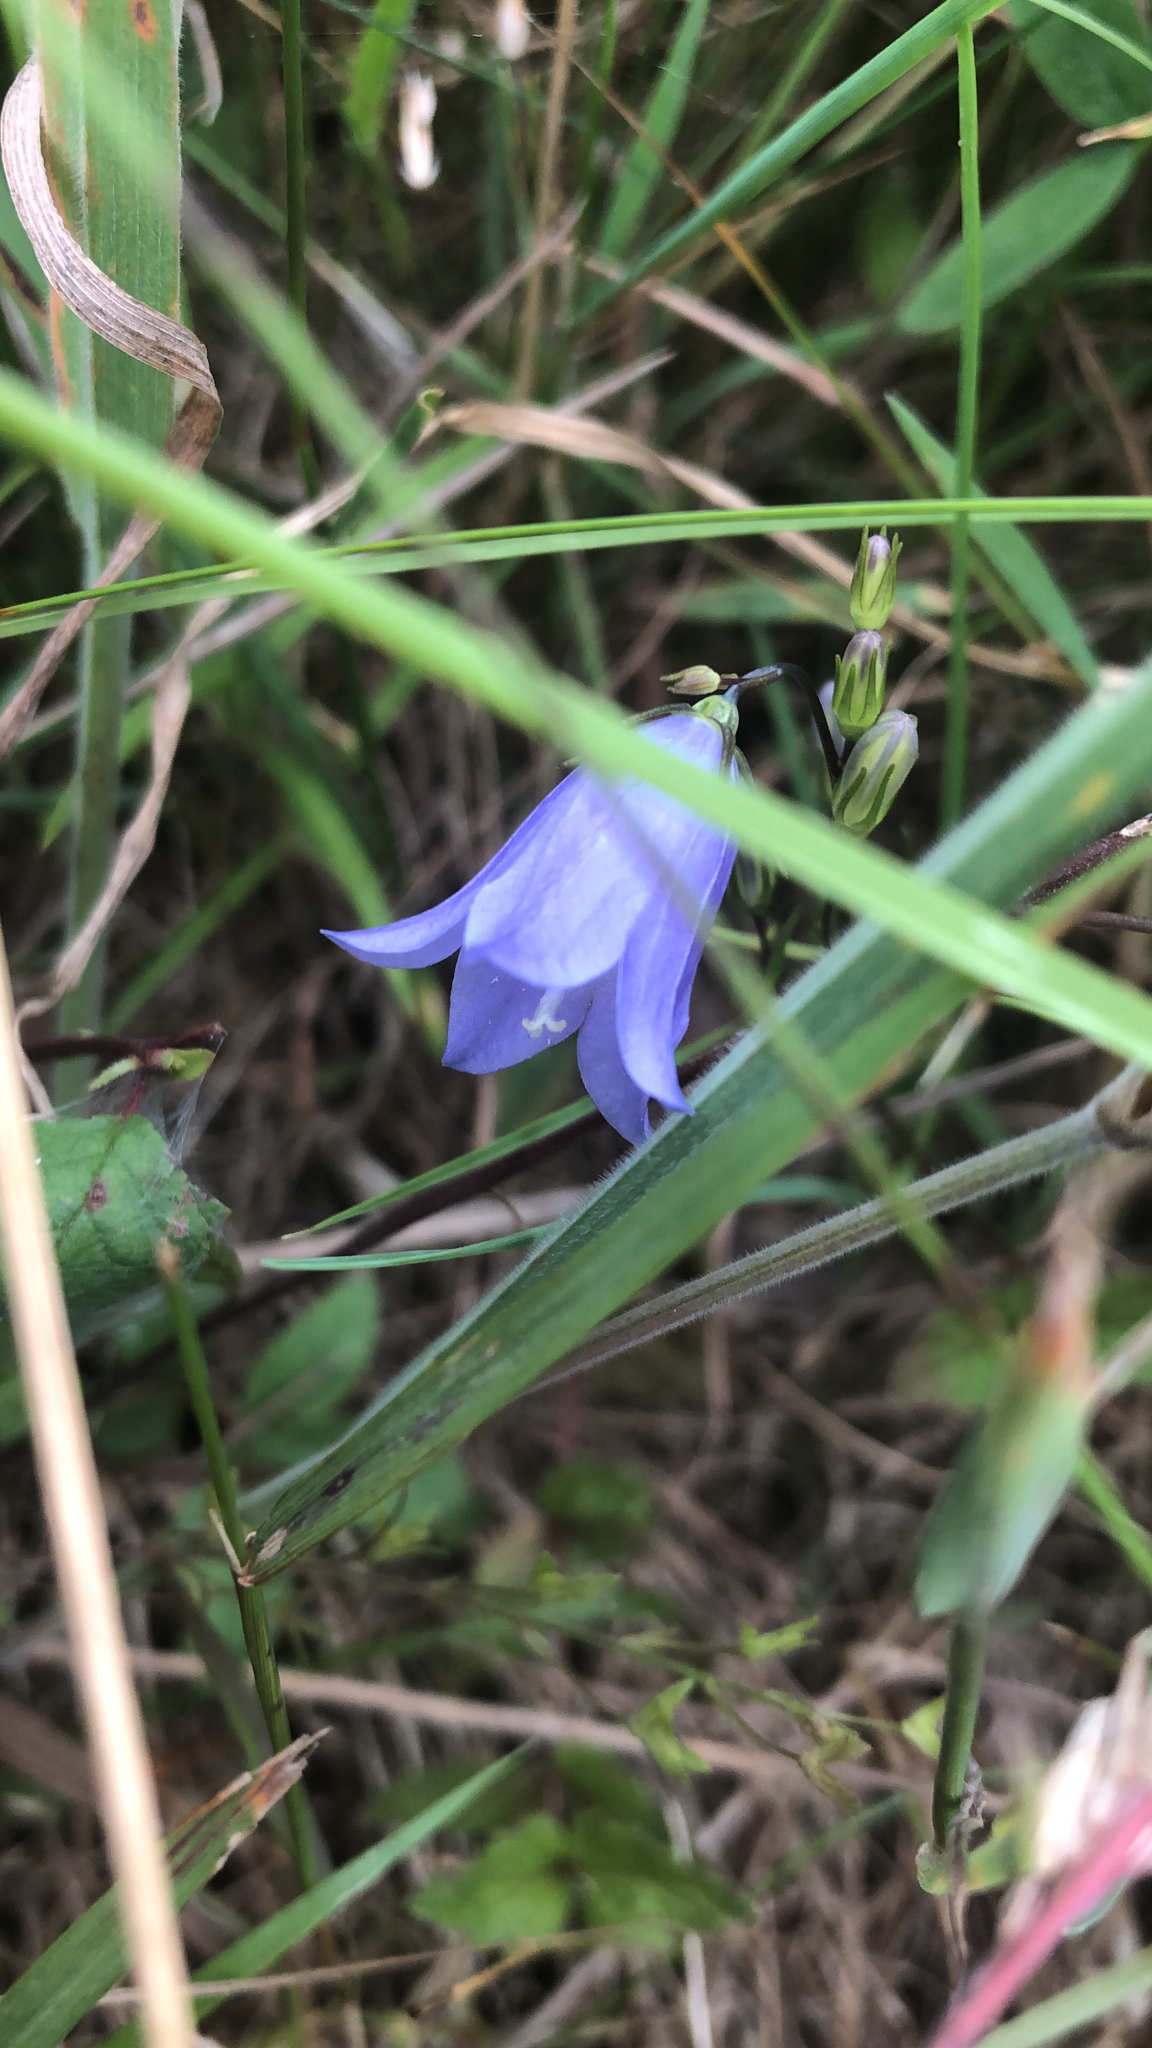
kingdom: Plantae
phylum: Tracheophyta
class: Magnoliopsida
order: Asterales
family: Campanulaceae
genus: Campanula
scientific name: Campanula rotundifolia
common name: Harebell
